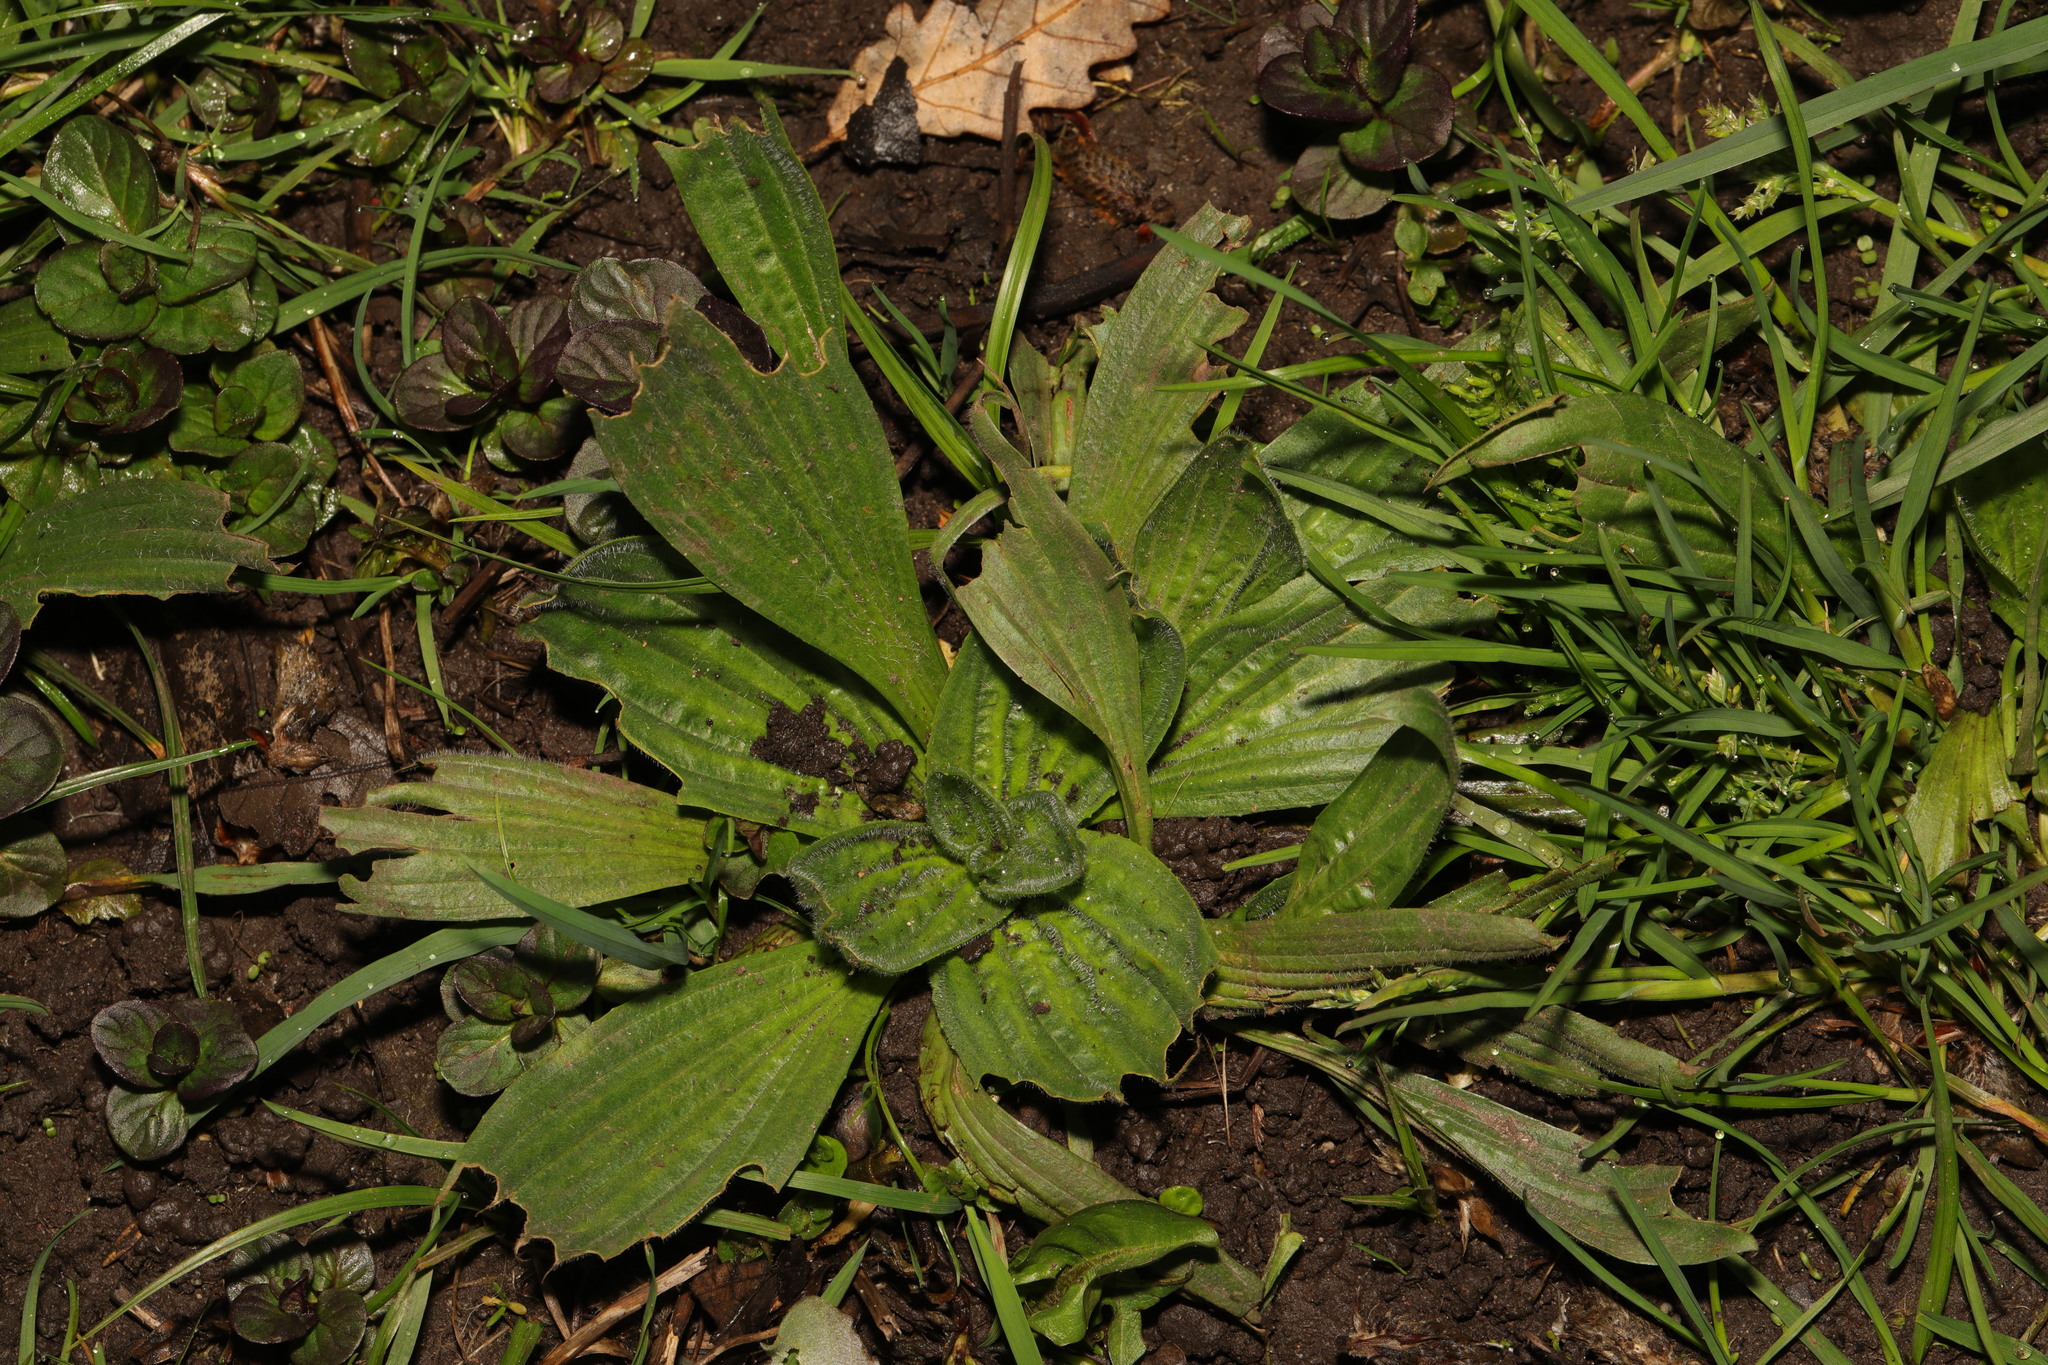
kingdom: Plantae
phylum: Tracheophyta
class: Magnoliopsida
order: Lamiales
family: Plantaginaceae
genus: Plantago
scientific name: Plantago lanceolata
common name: Ribwort plantain
